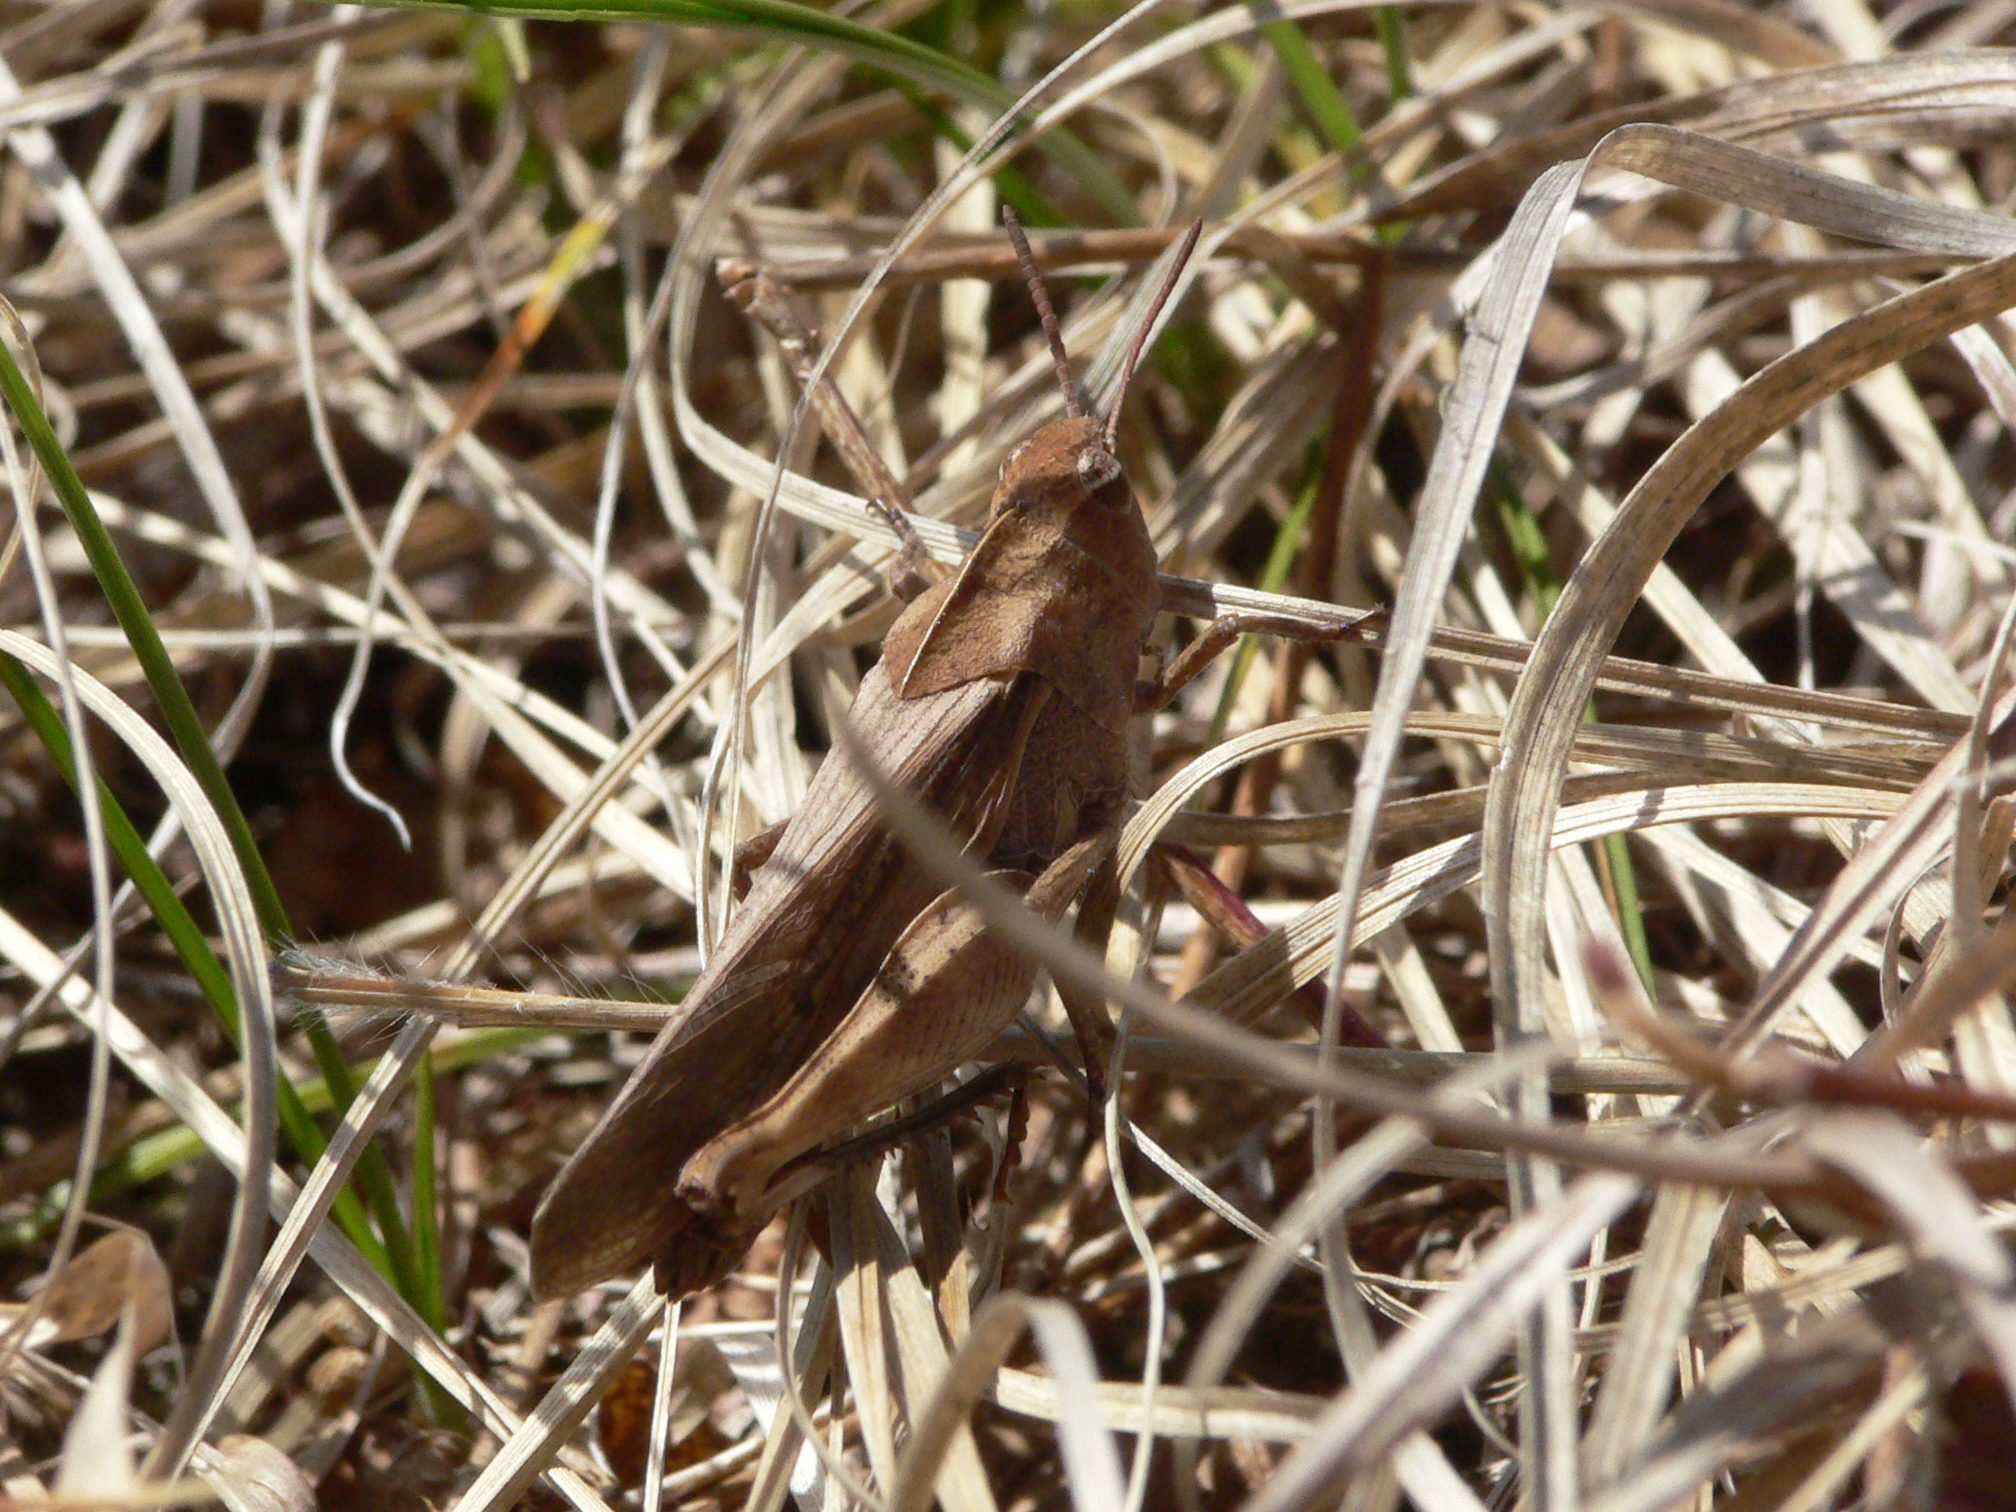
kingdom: Animalia
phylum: Arthropoda
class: Insecta
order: Orthoptera
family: Acrididae
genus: Chortophaga
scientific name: Chortophaga viridifasciata
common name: Green-striped grasshopper
